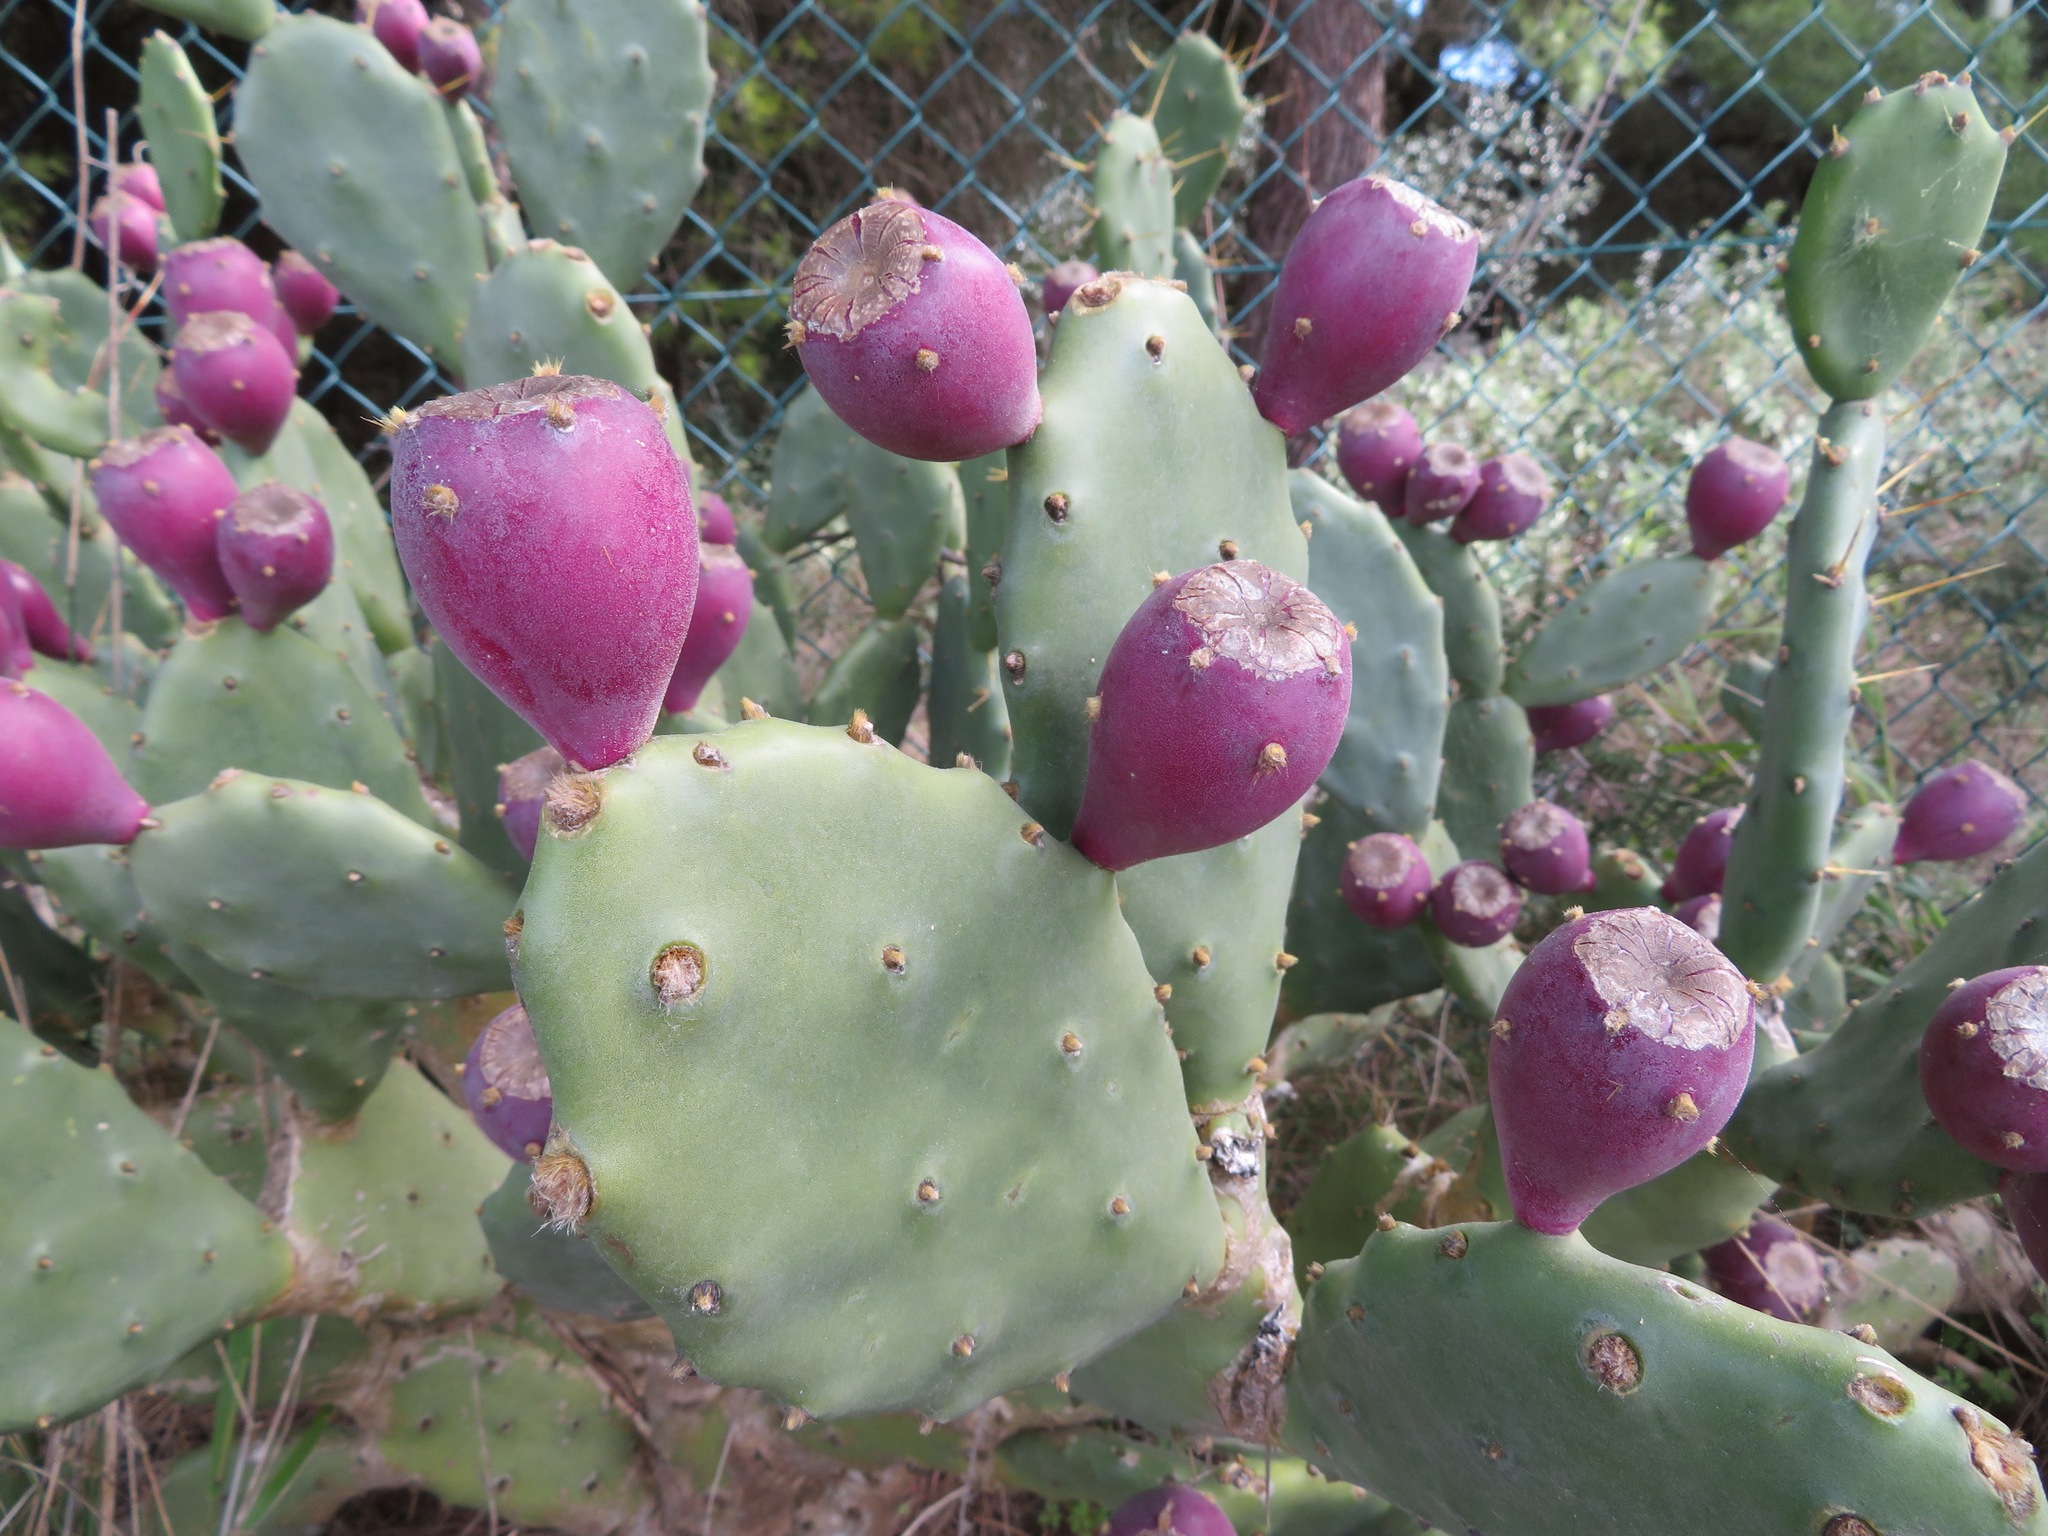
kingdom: Plantae
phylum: Tracheophyta
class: Magnoliopsida
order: Caryophyllales
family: Cactaceae
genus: Opuntia
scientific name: Opuntia stricta
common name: Erect pricklypear
